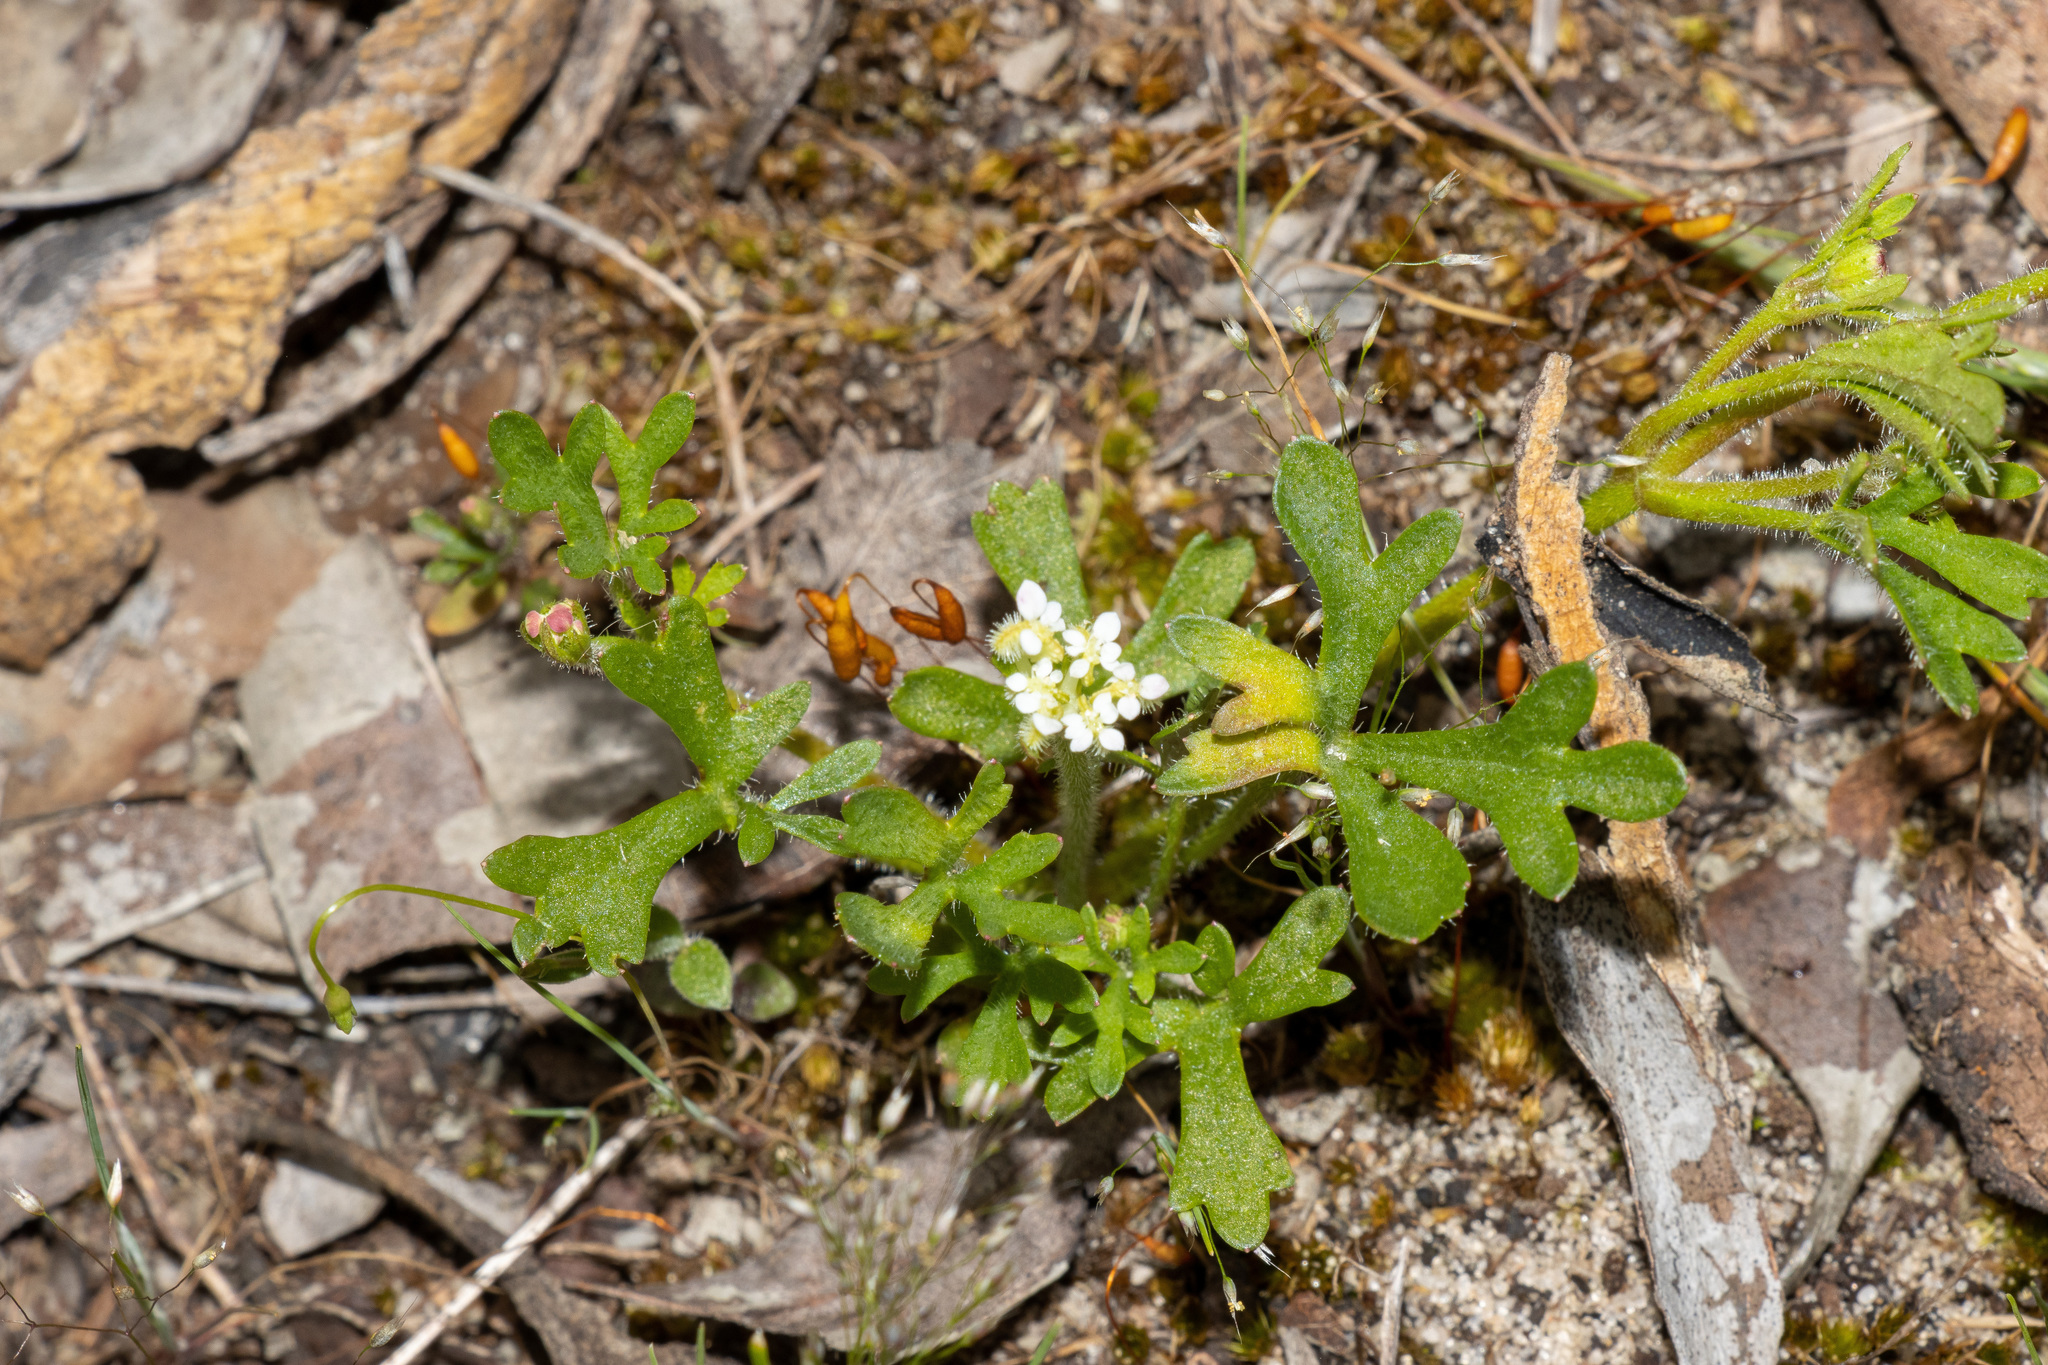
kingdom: Plantae
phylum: Tracheophyta
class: Magnoliopsida
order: Apiales
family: Araliaceae
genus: Trachymene
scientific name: Trachymene pilosa
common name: Dwarf trachymene
